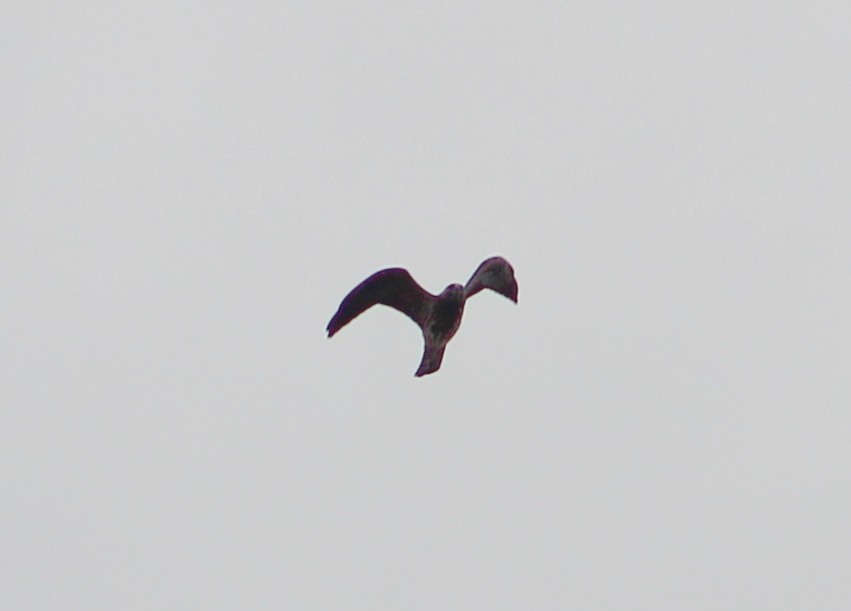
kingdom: Animalia
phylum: Chordata
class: Aves
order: Accipitriformes
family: Accipitridae
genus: Ictinia
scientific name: Ictinia mississippiensis
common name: Mississippi kite
